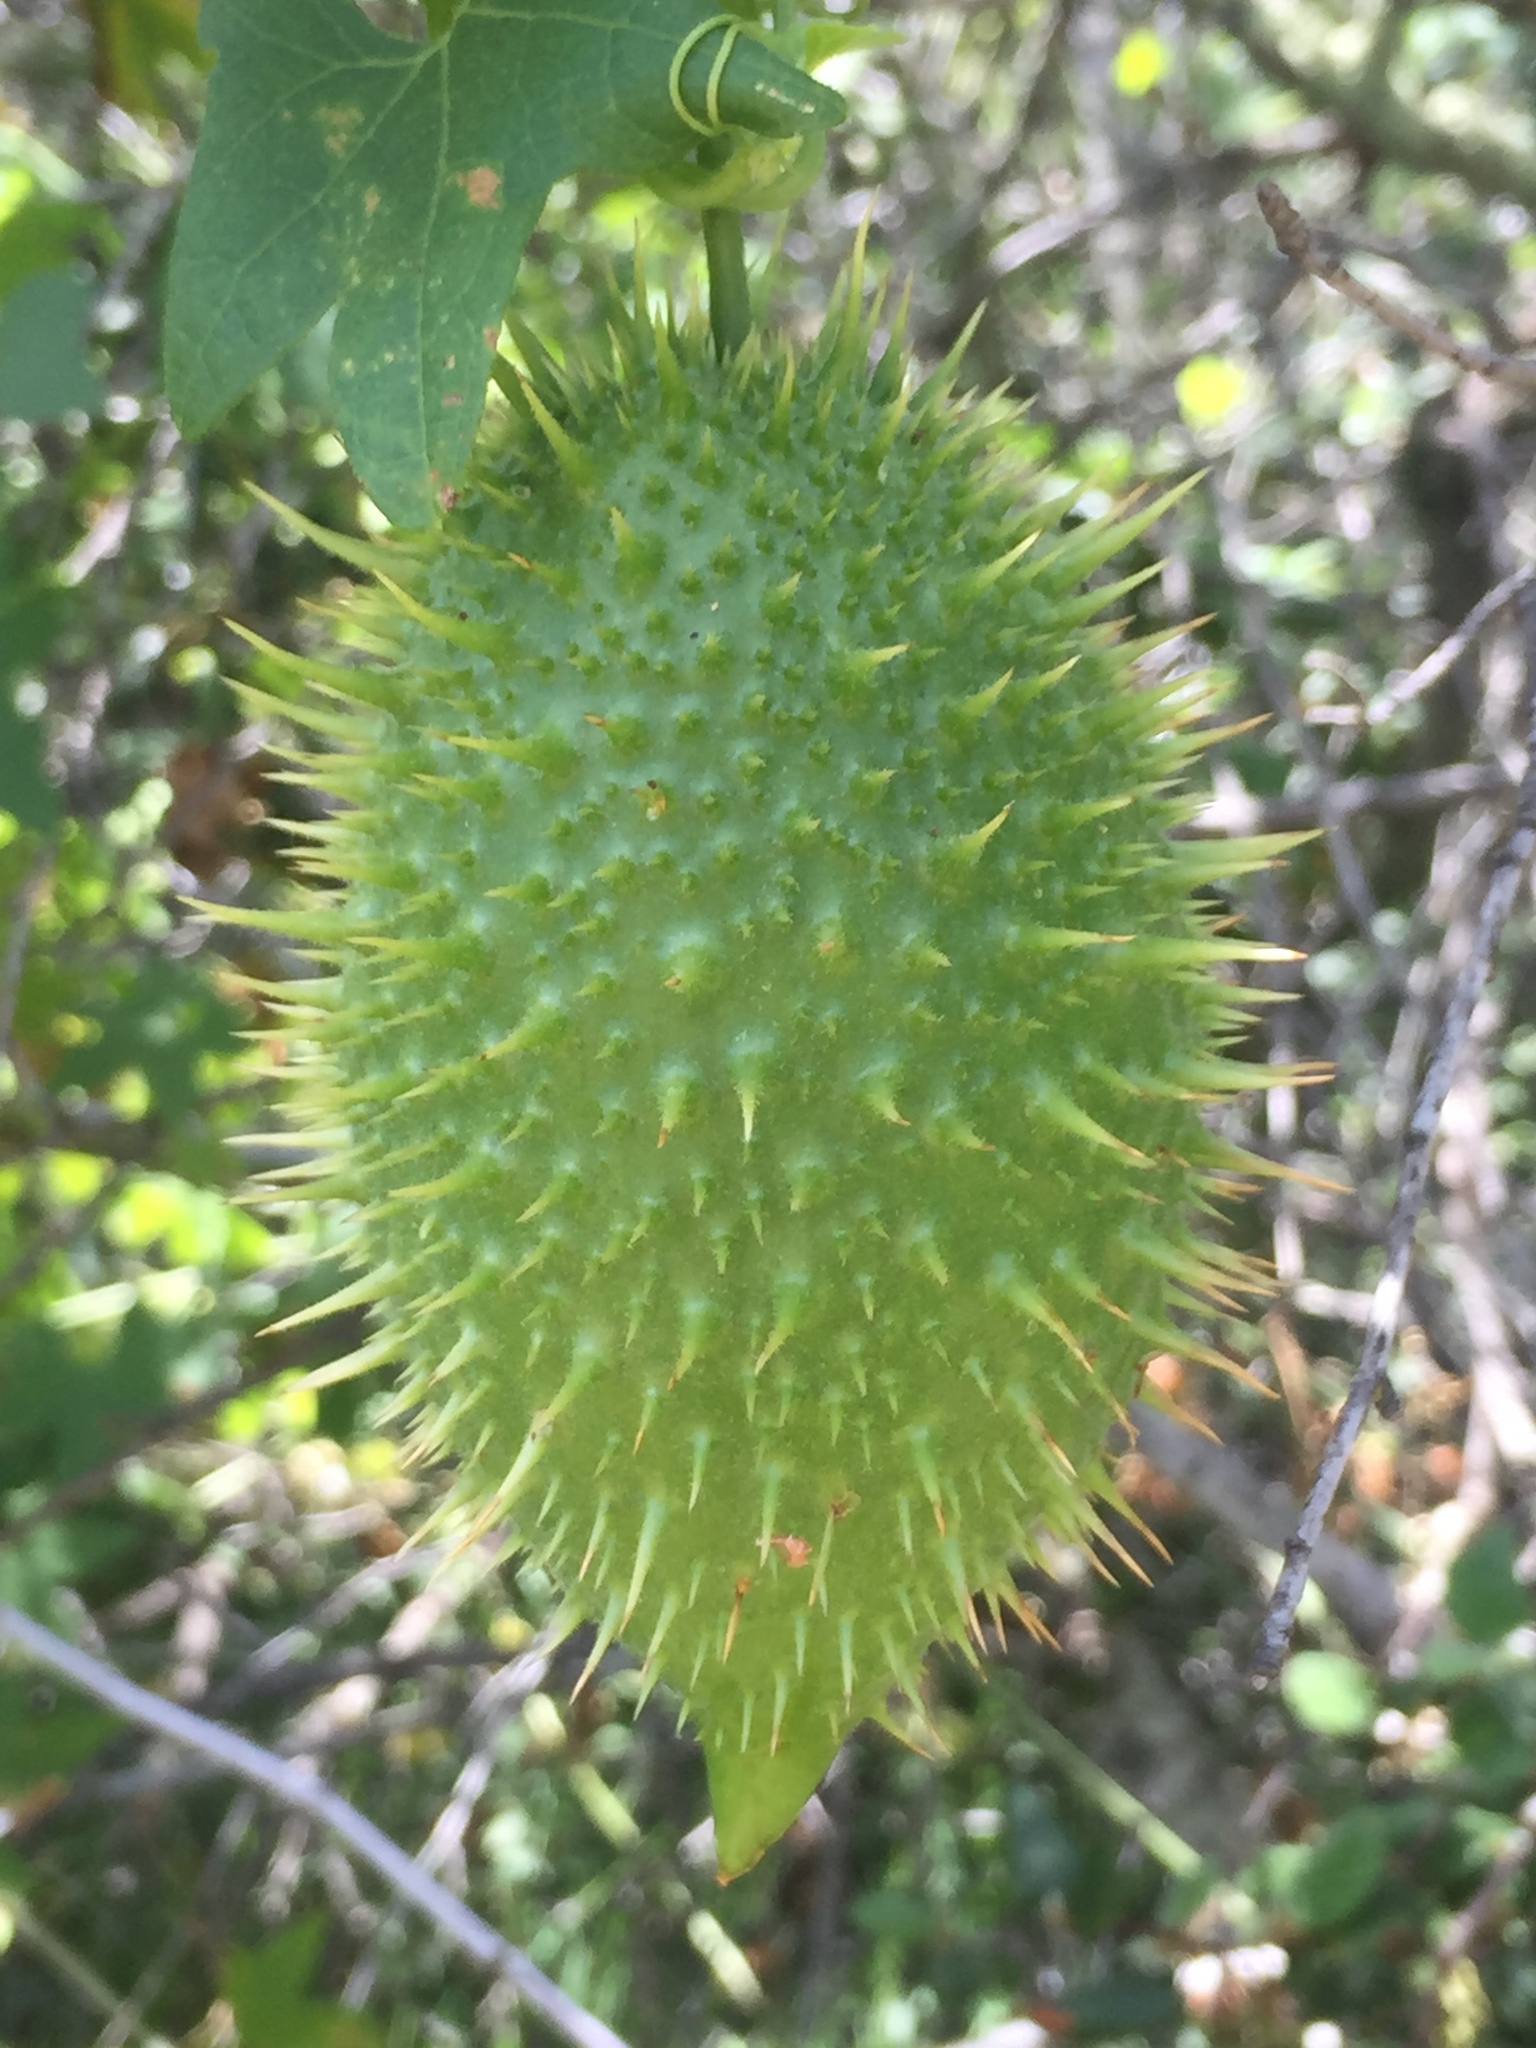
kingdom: Plantae
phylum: Tracheophyta
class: Magnoliopsida
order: Cucurbitales
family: Cucurbitaceae
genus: Marah
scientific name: Marah macrocarpa
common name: Cucamonga manroot
